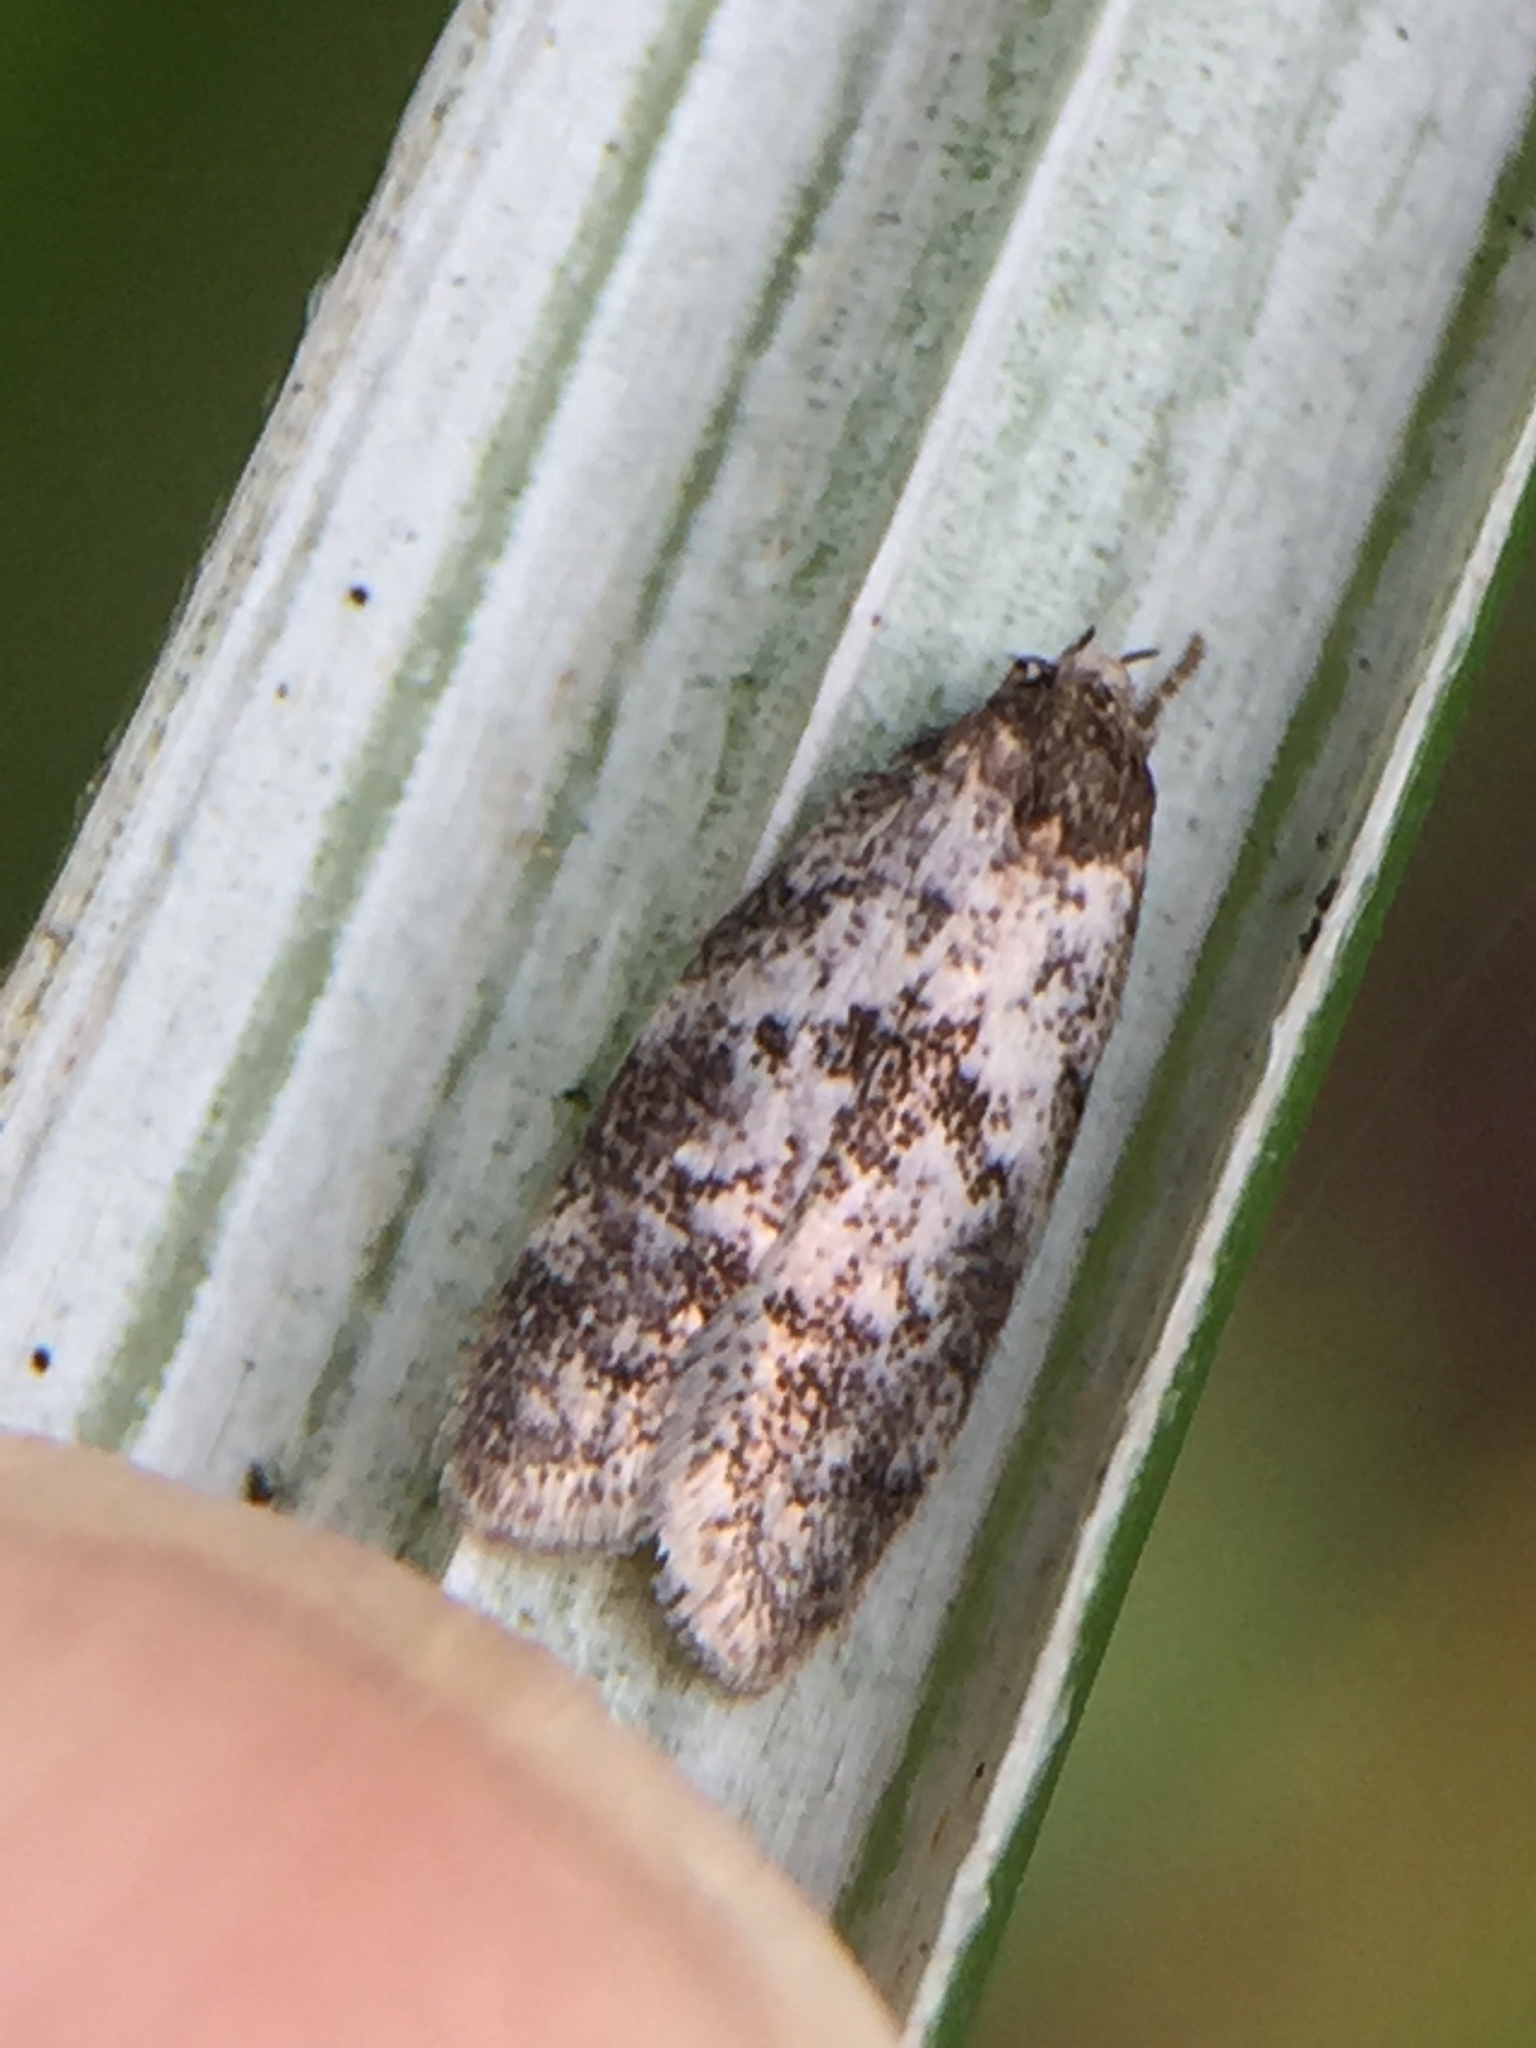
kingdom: Animalia
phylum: Arthropoda
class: Insecta
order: Lepidoptera
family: Oecophoridae
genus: Tingena
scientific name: Tingena clarkei
